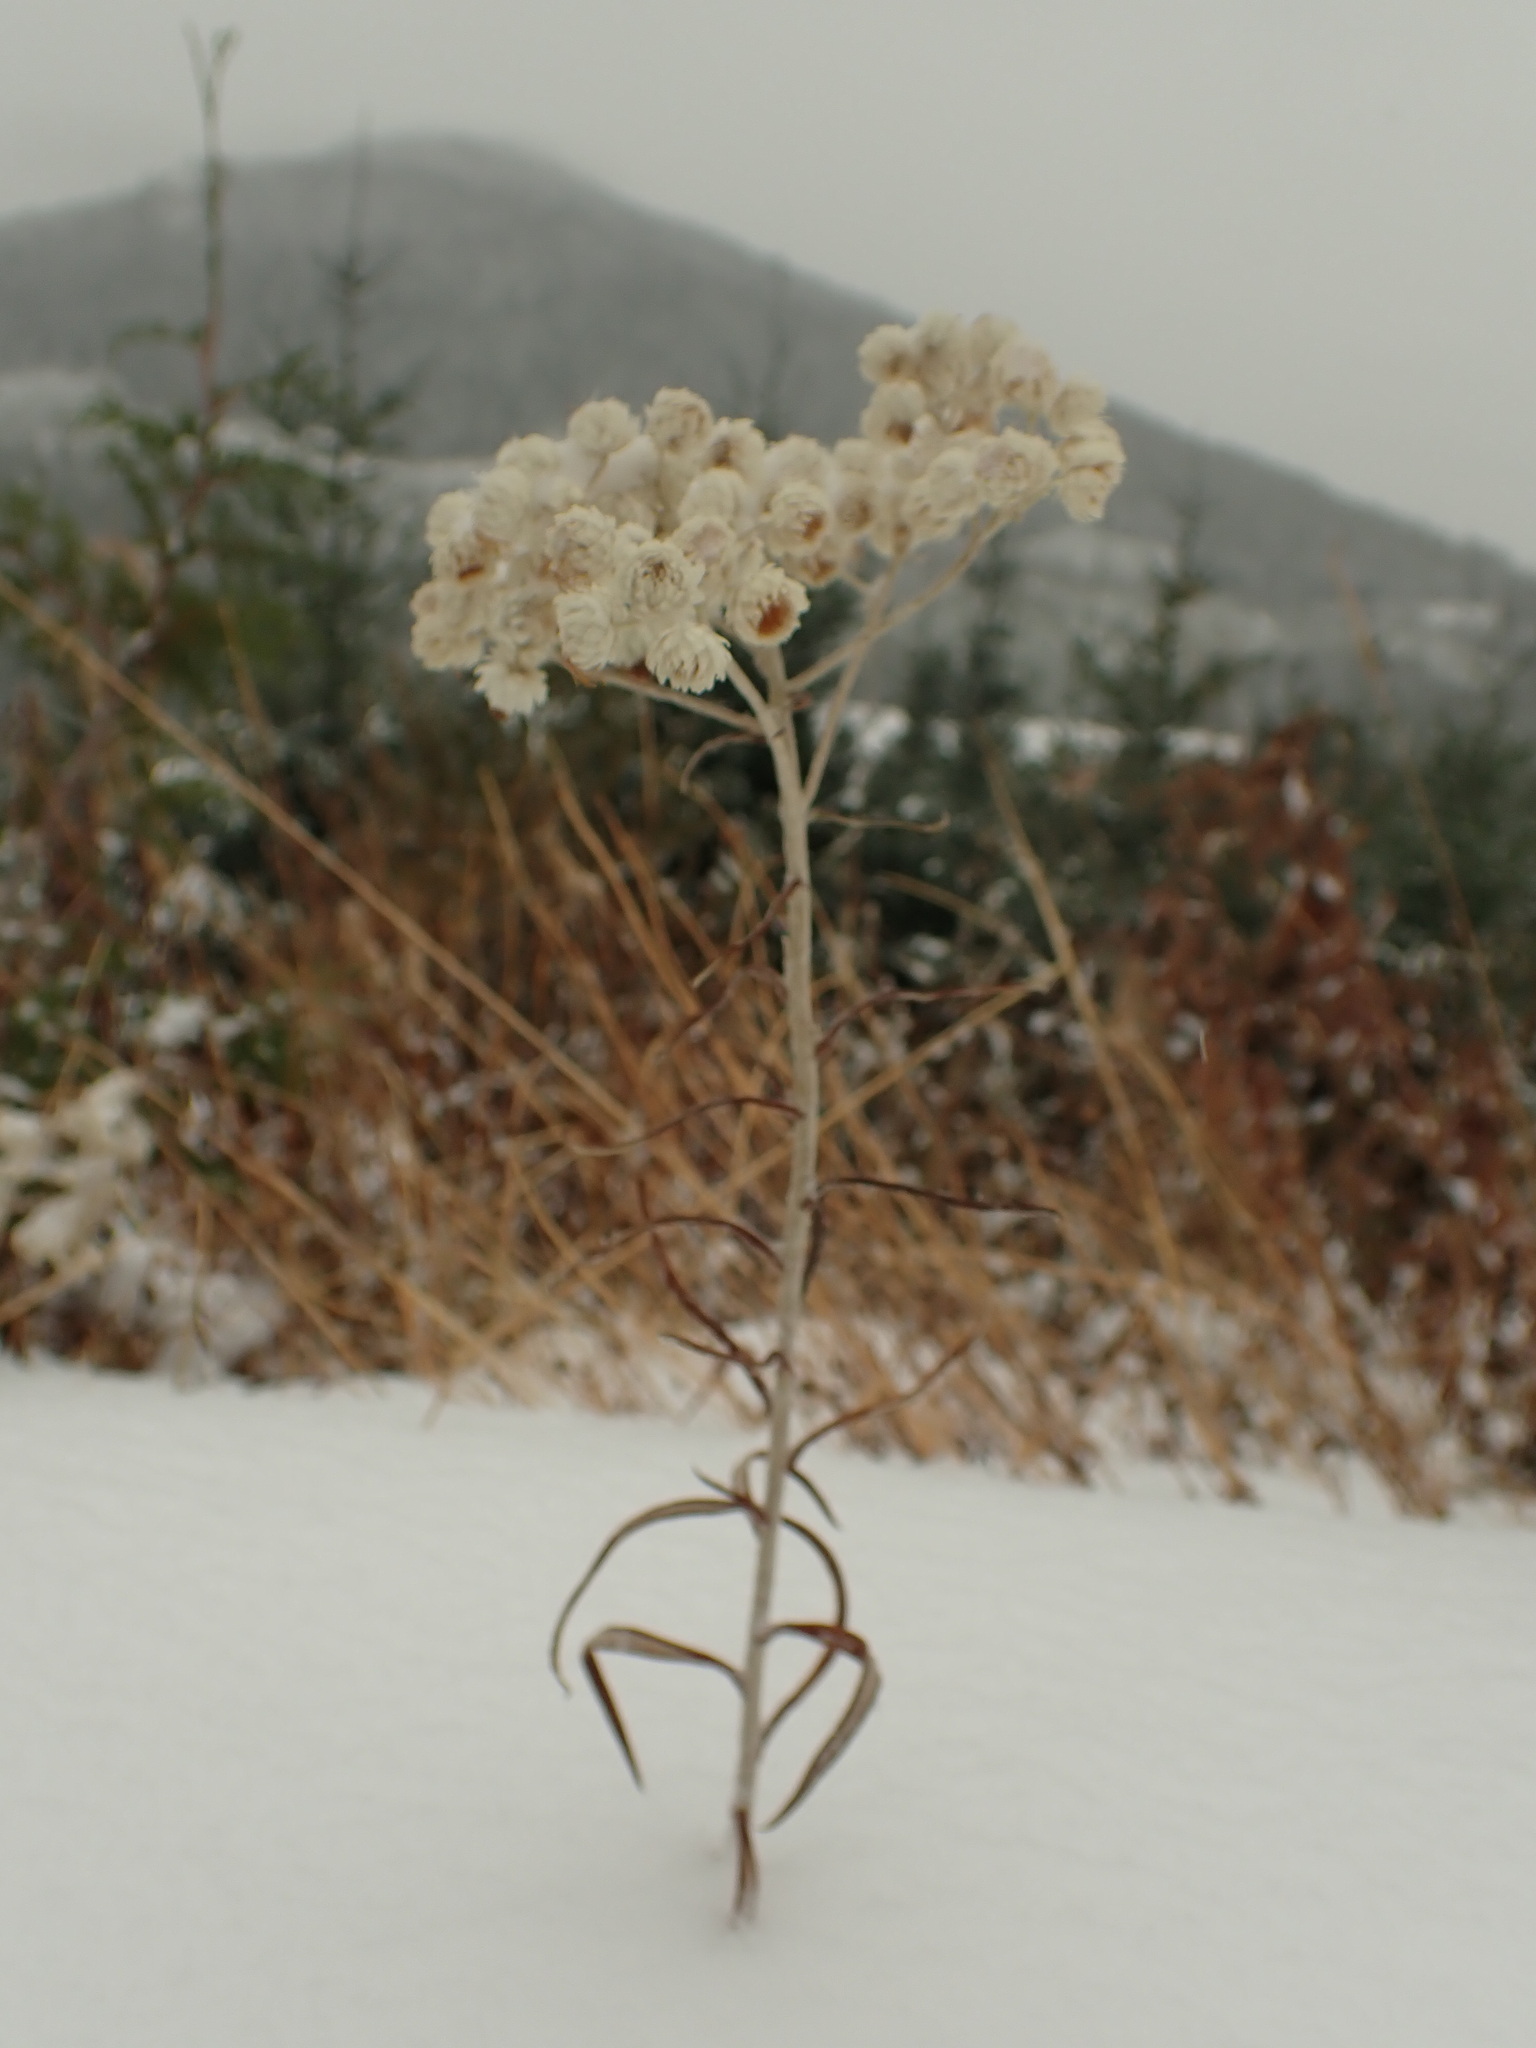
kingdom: Plantae
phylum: Tracheophyta
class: Magnoliopsida
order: Asterales
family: Asteraceae
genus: Anaphalis
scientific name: Anaphalis margaritacea
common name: Pearly everlasting
